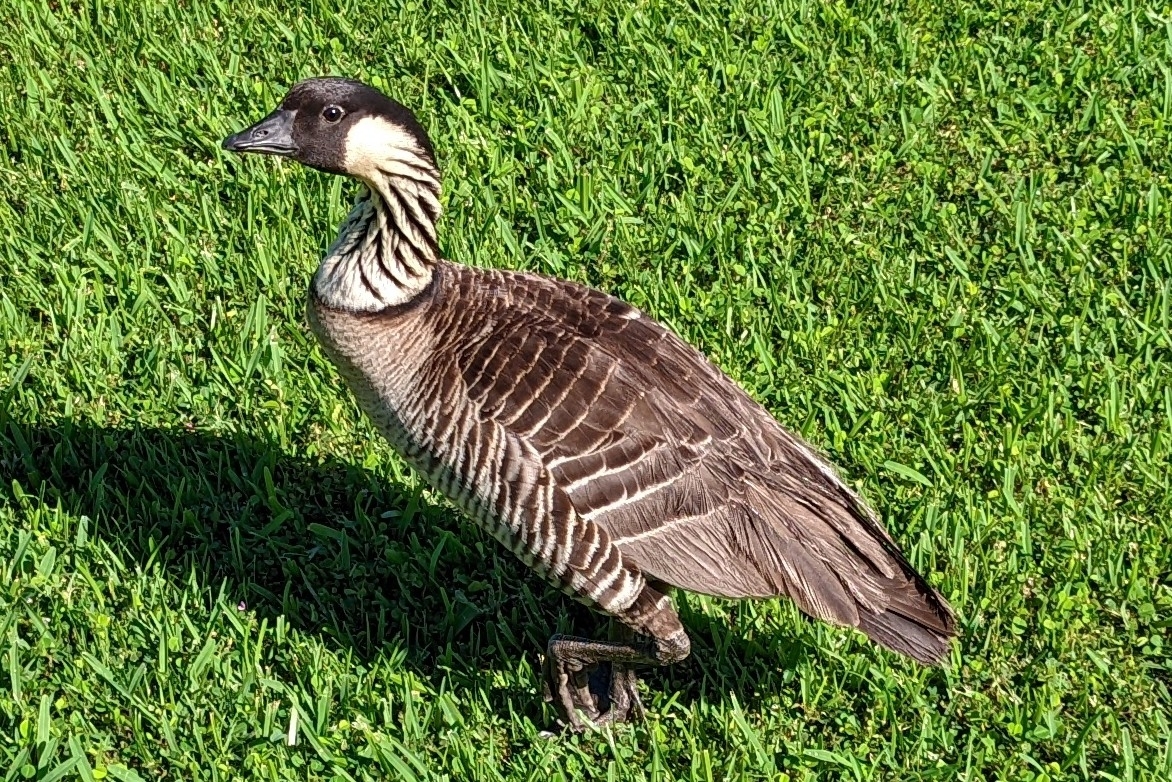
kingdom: Animalia
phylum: Chordata
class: Aves
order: Anseriformes
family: Anatidae
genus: Branta
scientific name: Branta sandvicensis
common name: Nene
